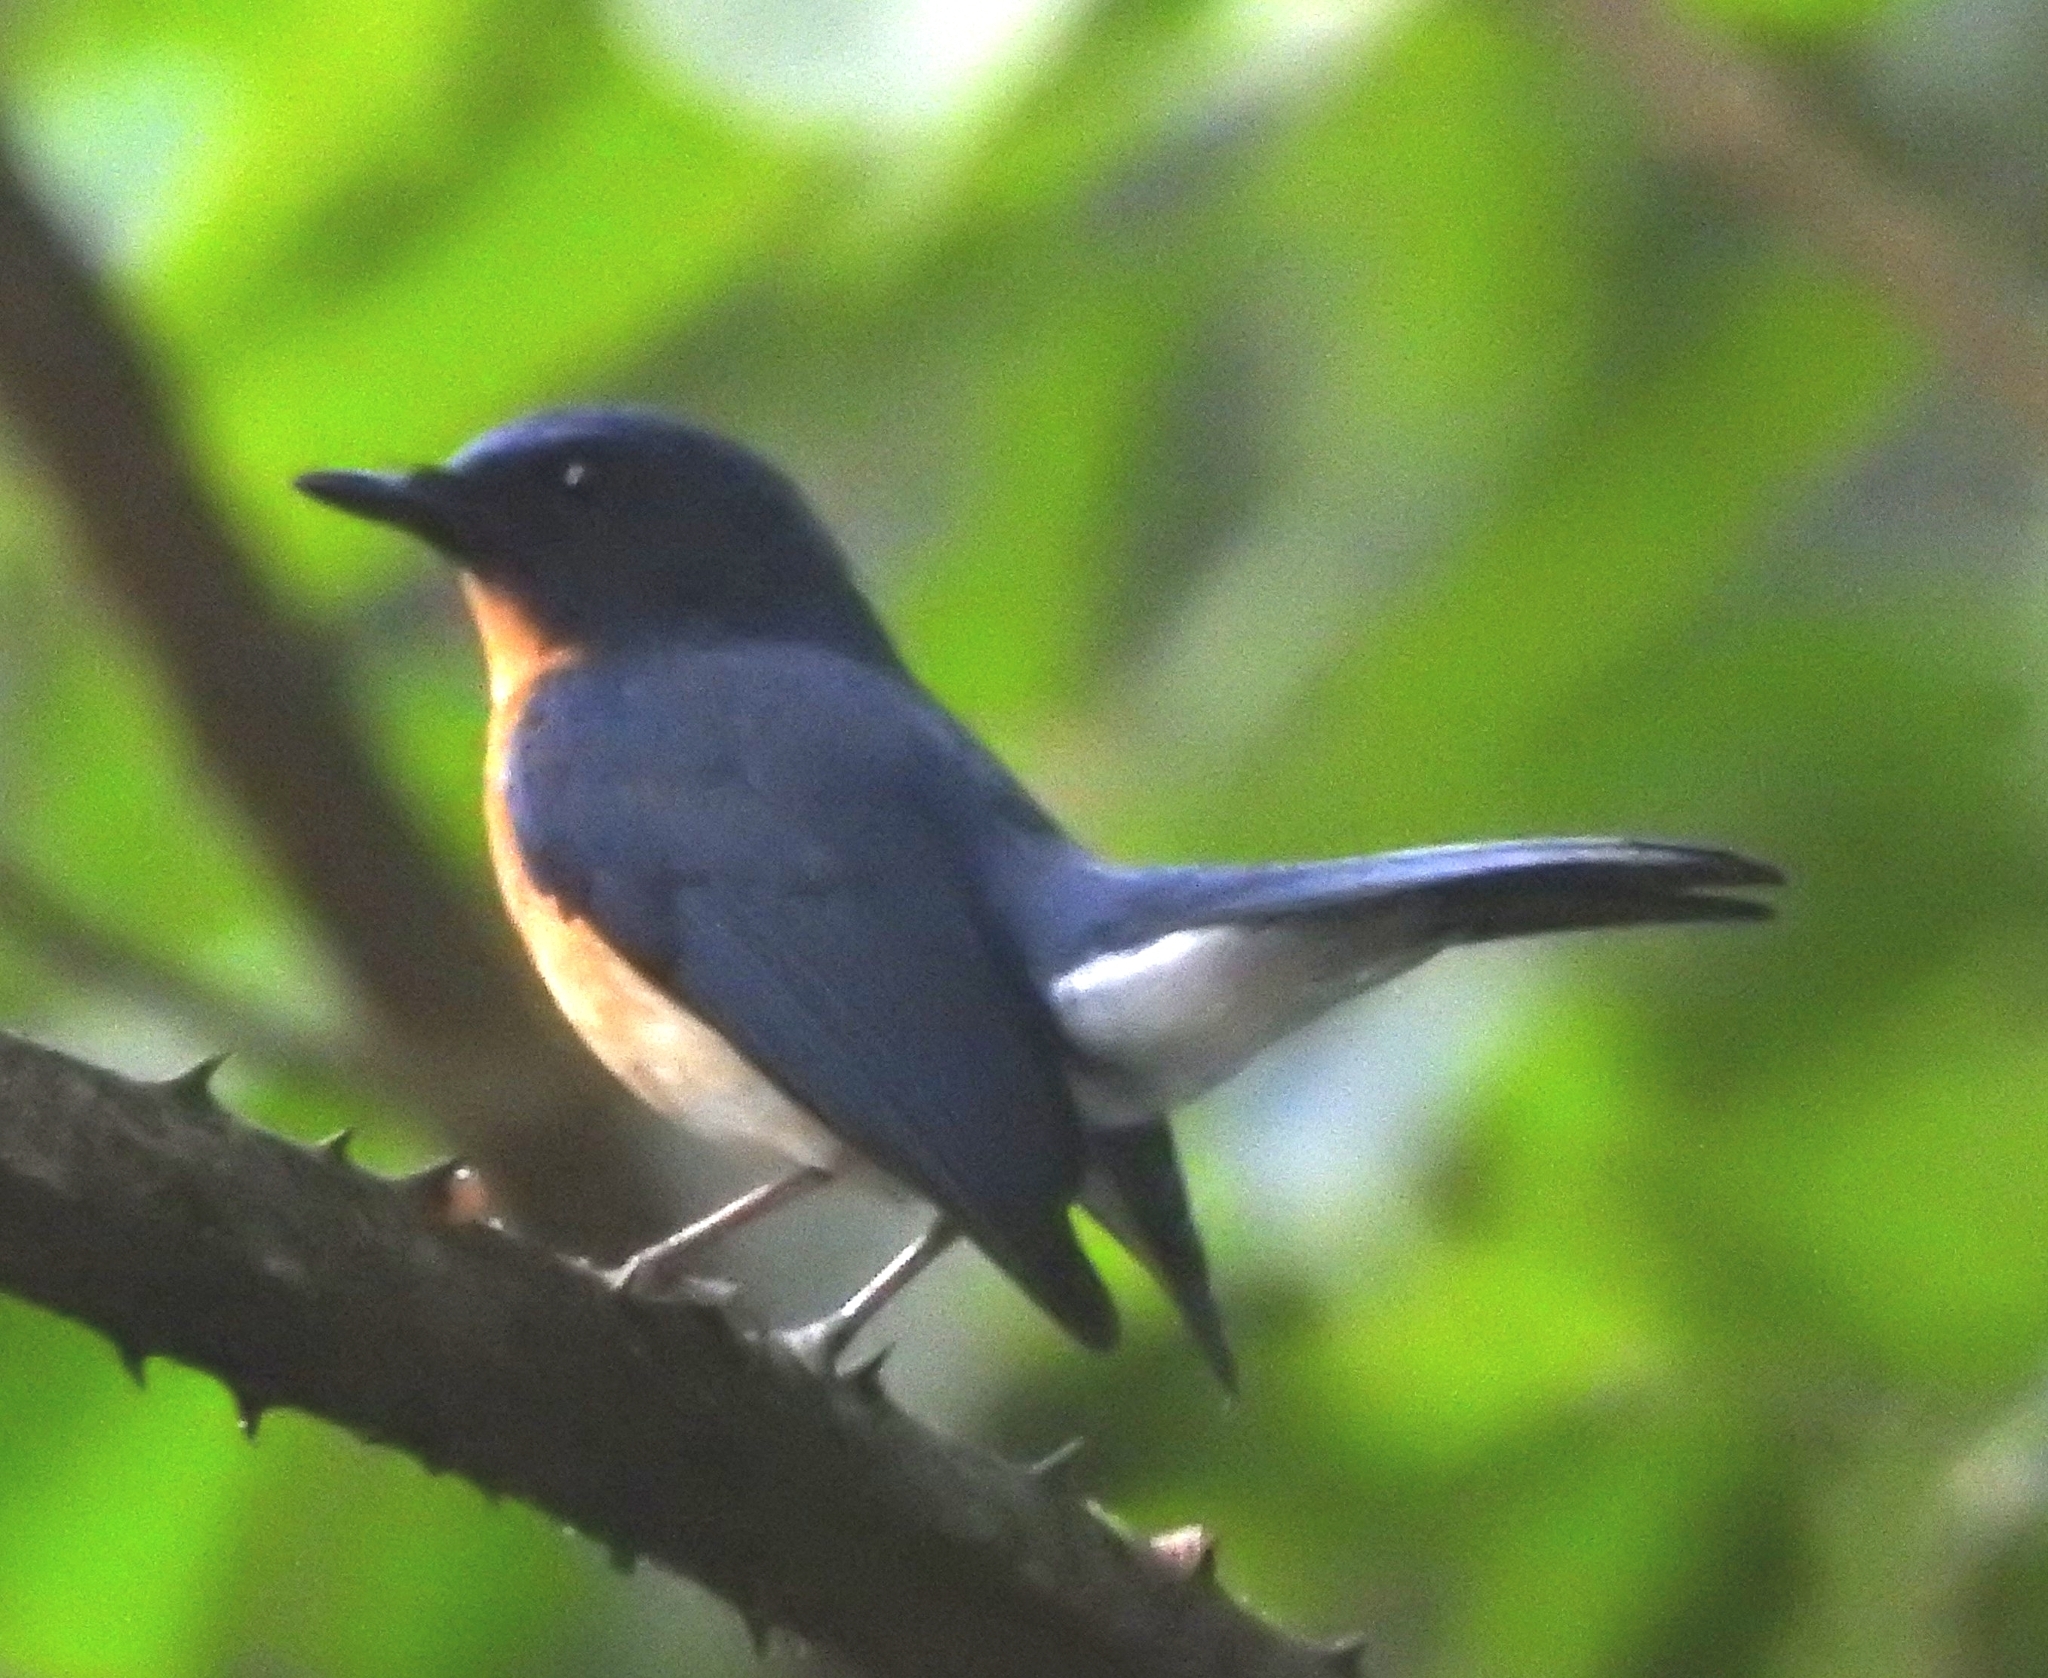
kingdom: Animalia
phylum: Chordata
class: Aves
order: Passeriformes
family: Muscicapidae
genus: Cyornis
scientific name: Cyornis tickelliae
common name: Tickell's blue flycatcher
